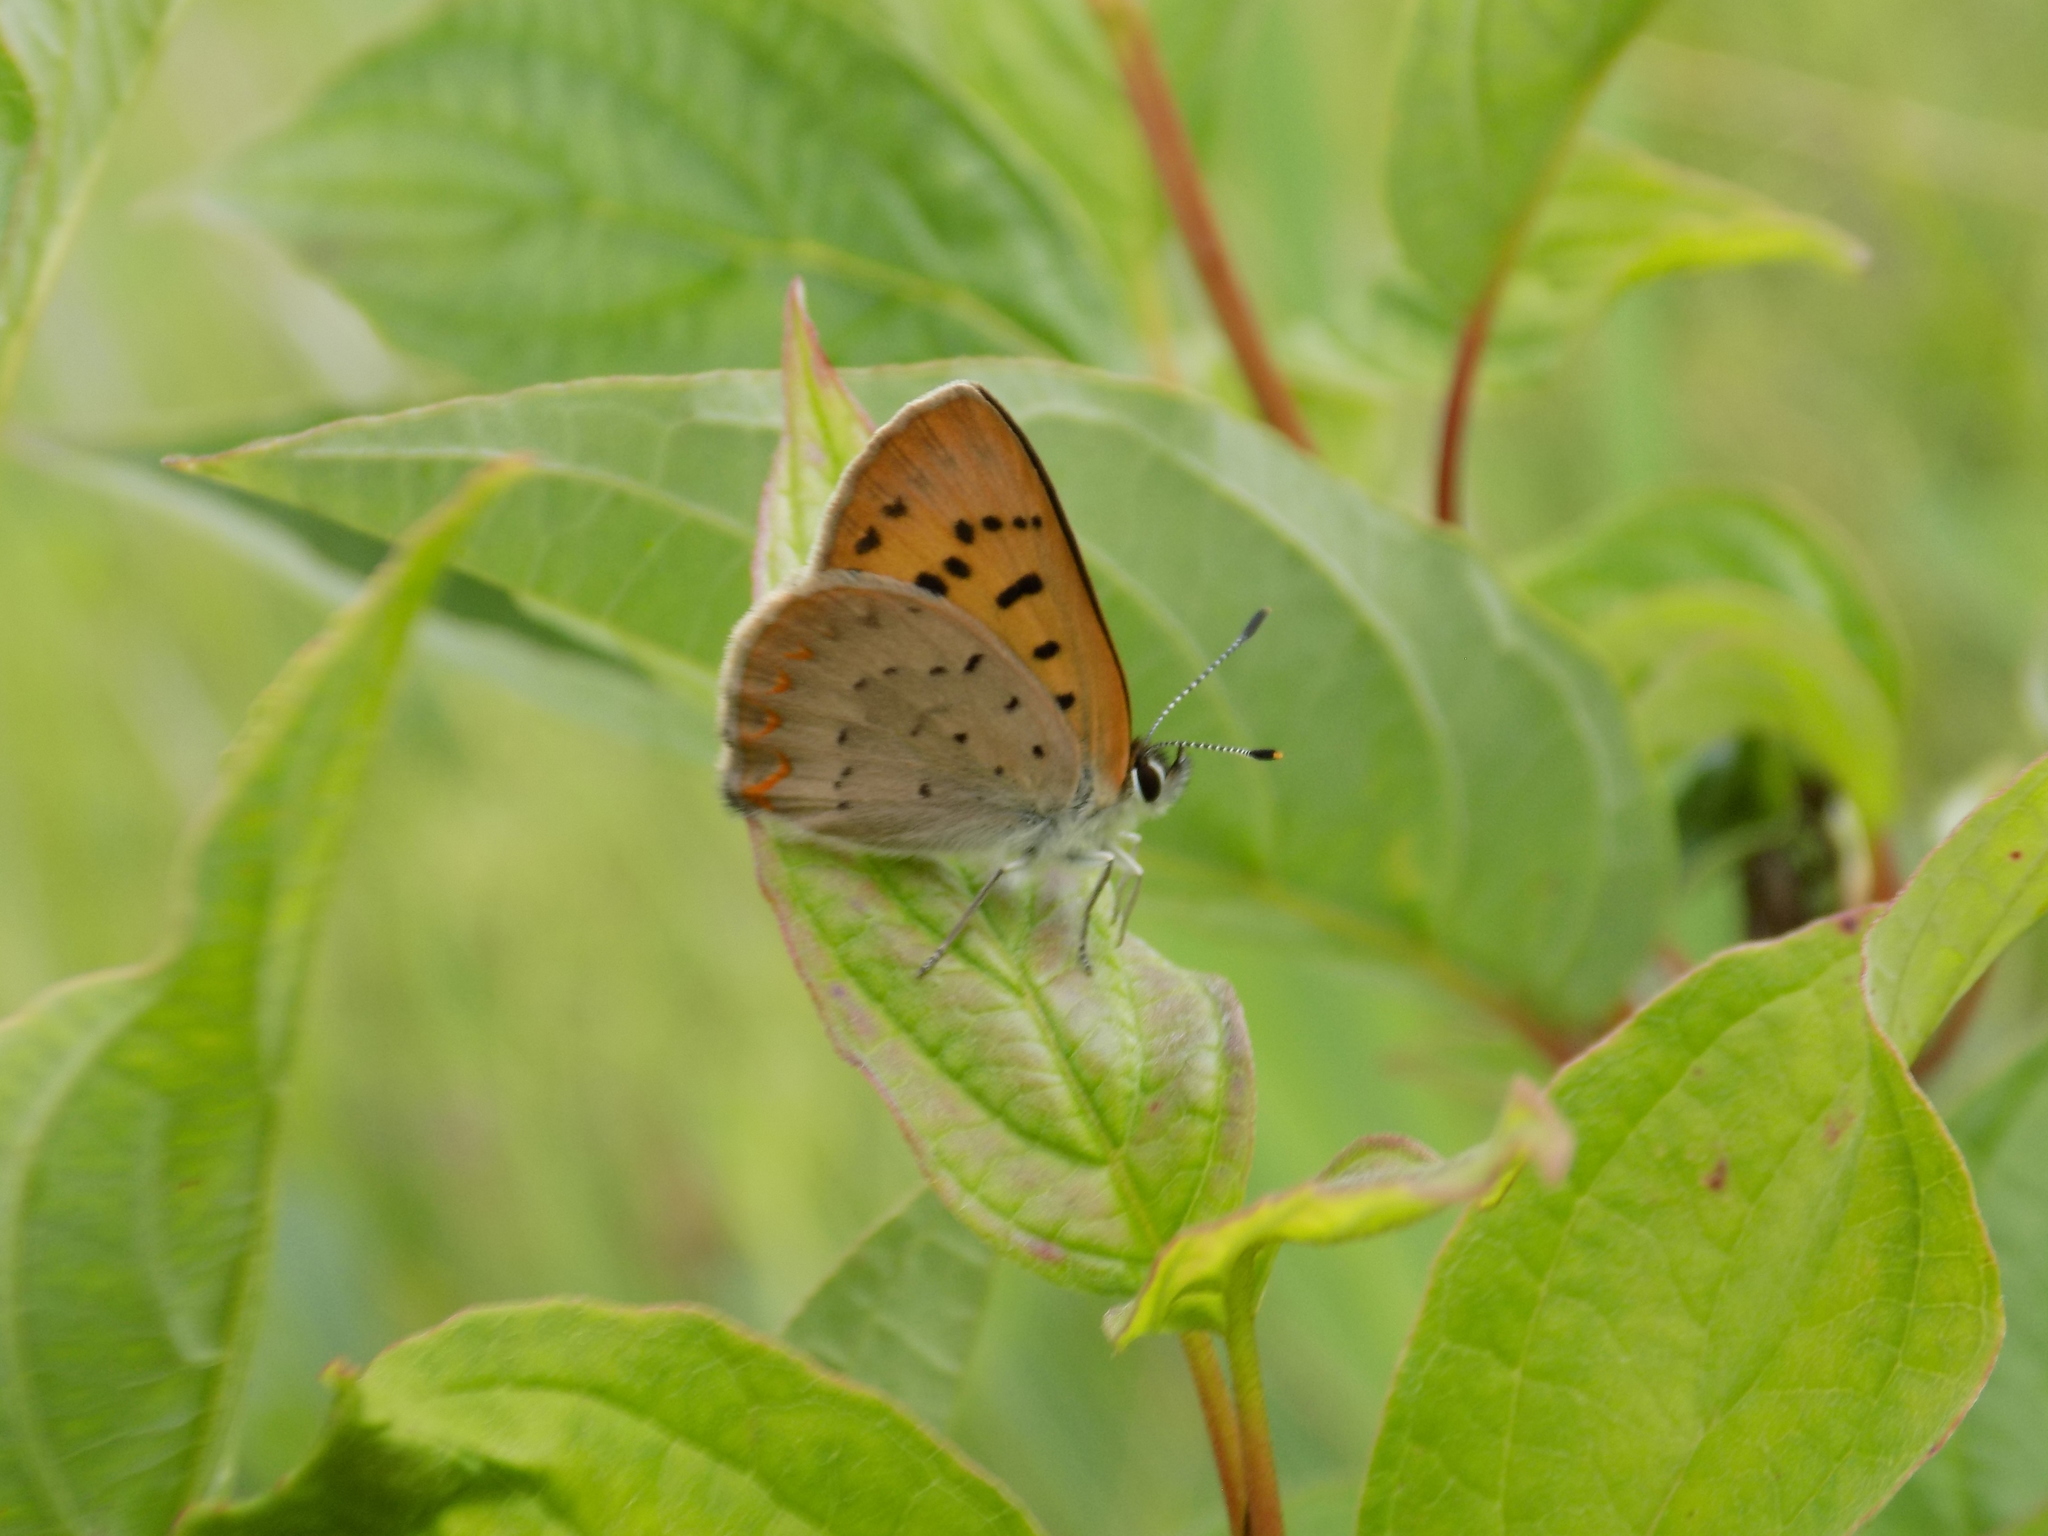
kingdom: Animalia
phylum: Arthropoda
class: Insecta
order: Lepidoptera
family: Lycaenidae
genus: Tharsalea
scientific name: Tharsalea dorcas
